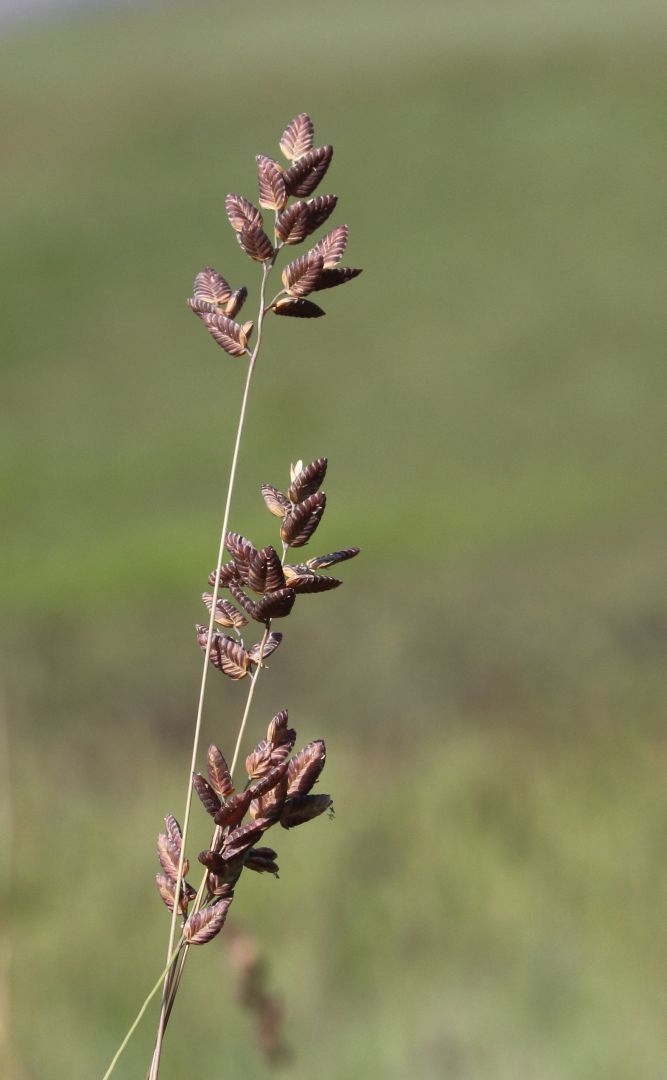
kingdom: Plantae
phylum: Tracheophyta
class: Liliopsida
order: Poales
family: Poaceae
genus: Eragrostis
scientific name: Eragrostis capensis
